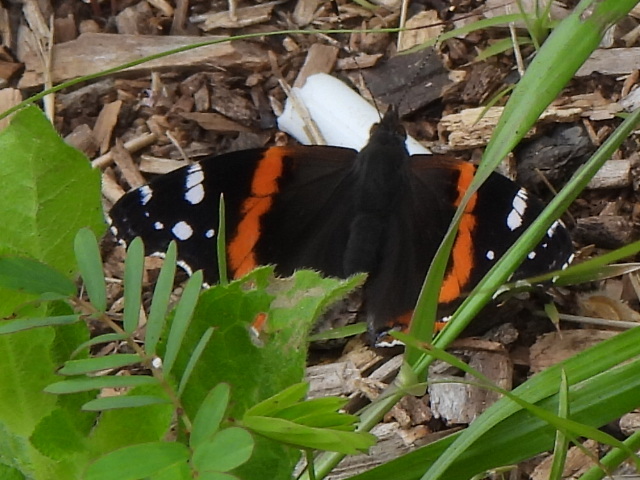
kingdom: Animalia
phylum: Arthropoda
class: Insecta
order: Lepidoptera
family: Nymphalidae
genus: Vanessa
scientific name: Vanessa atalanta
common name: Red admiral
